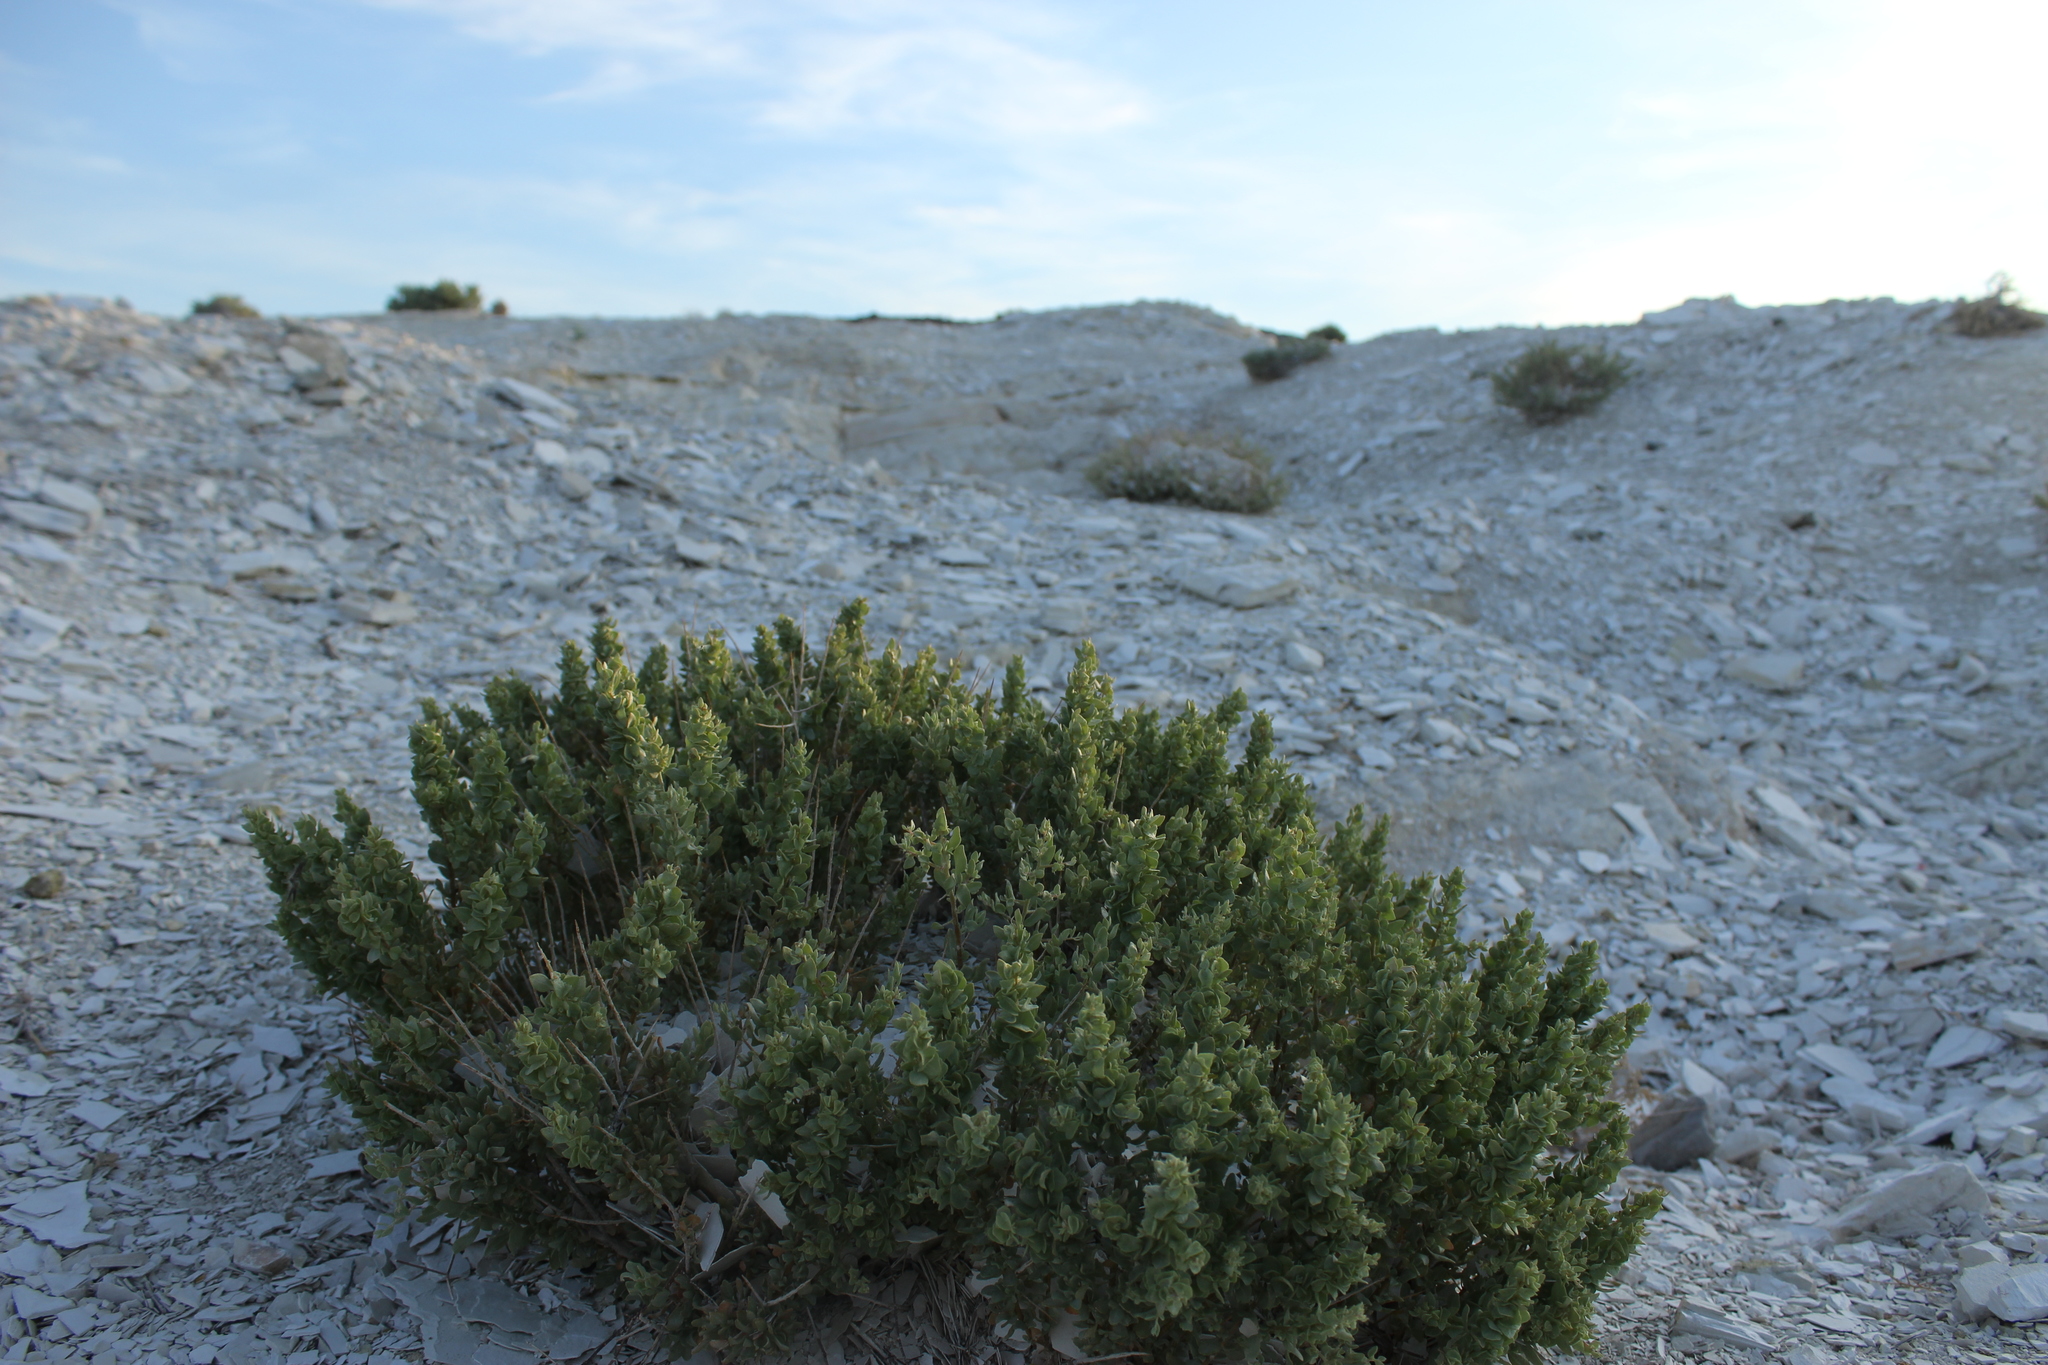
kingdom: Plantae
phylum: Tracheophyta
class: Magnoliopsida
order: Caryophyllales
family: Amaranthaceae
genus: Atriplex
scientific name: Atriplex confertifolia
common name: Shadscale
